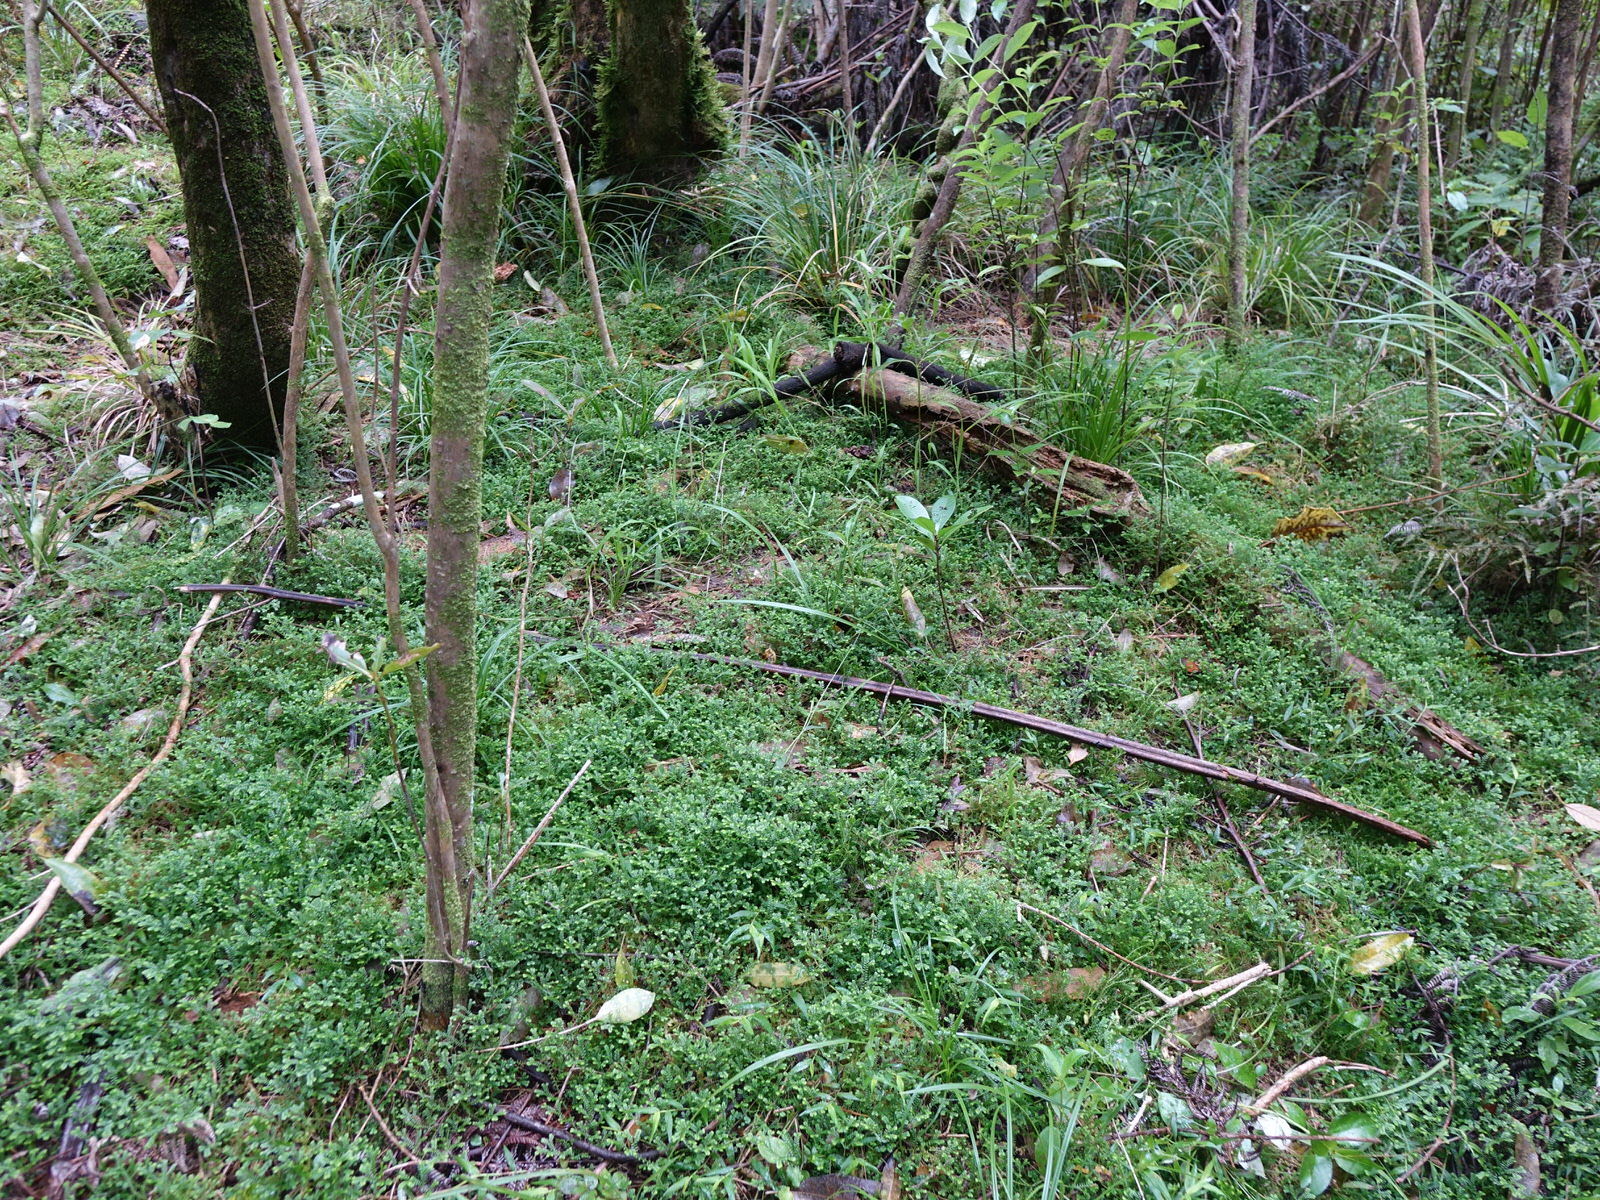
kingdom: Plantae
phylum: Tracheophyta
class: Lycopodiopsida
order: Selaginellales
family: Selaginellaceae
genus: Selaginella
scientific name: Selaginella kraussiana
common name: Krauss' spikemoss
